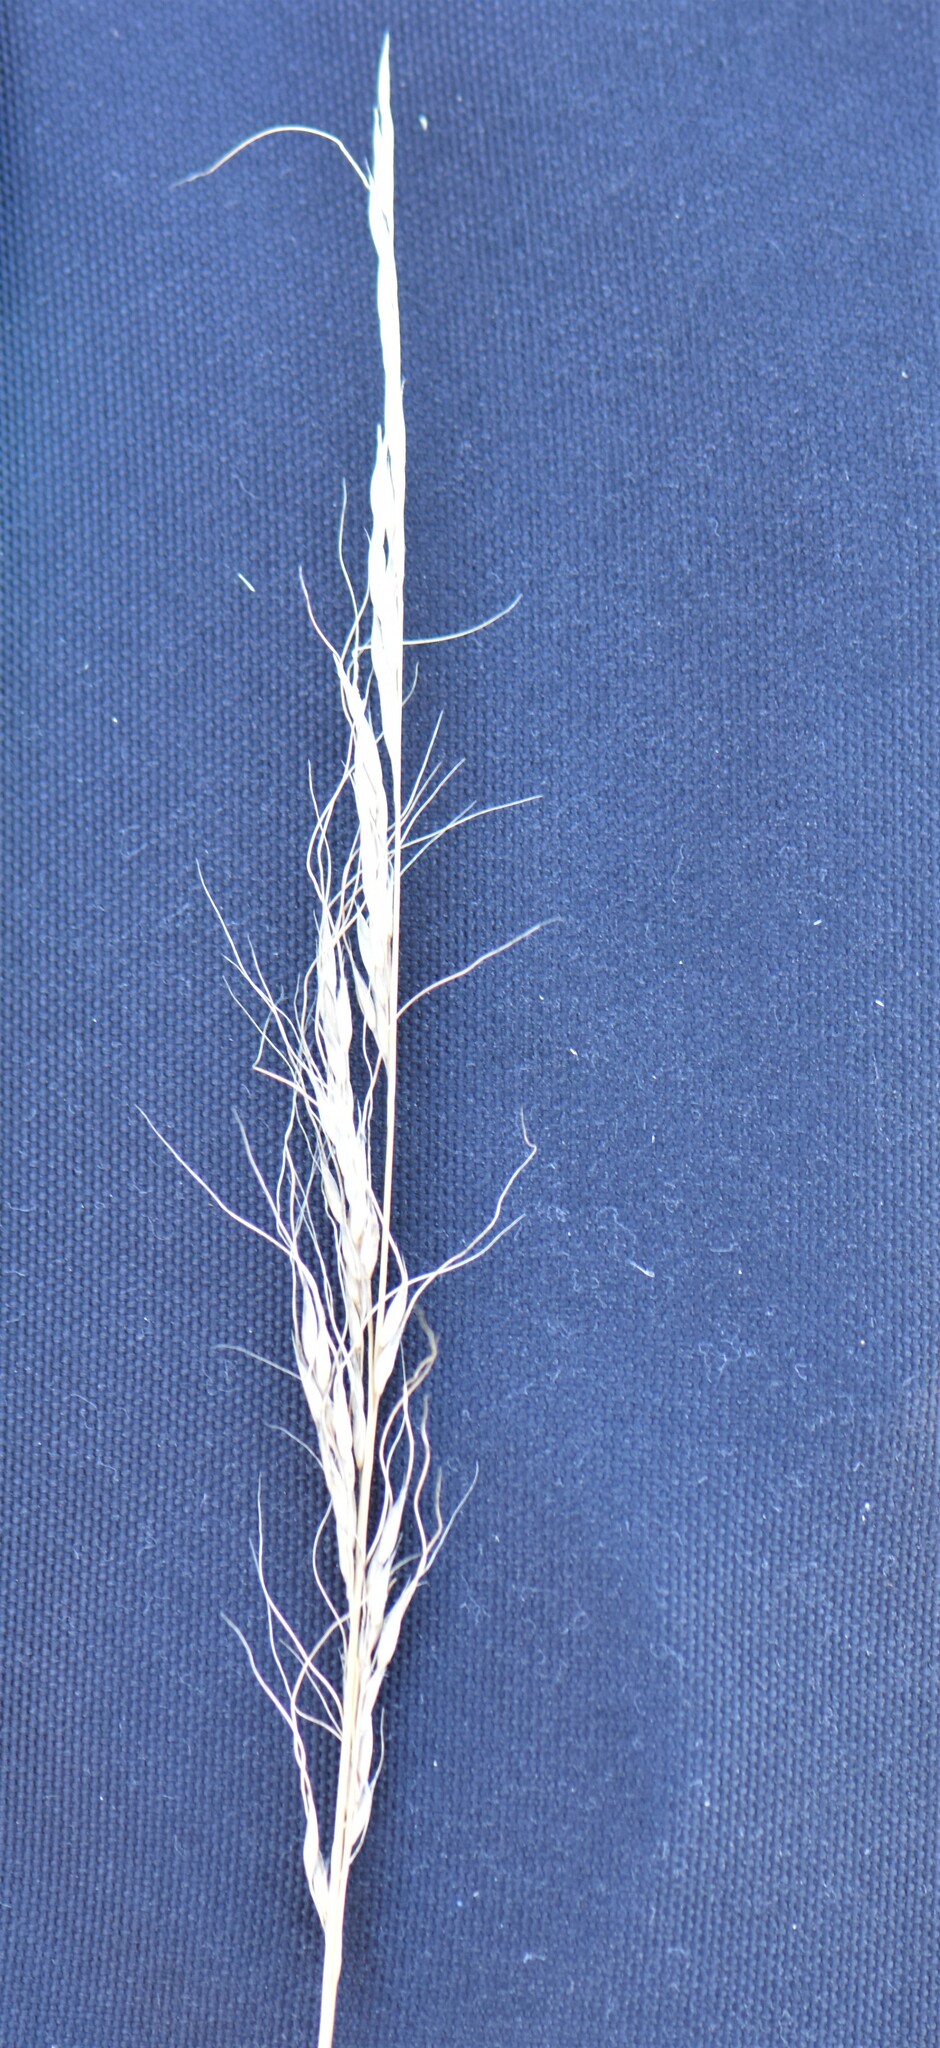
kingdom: Plantae
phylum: Tracheophyta
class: Liliopsida
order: Poales
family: Poaceae
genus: Nassella
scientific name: Nassella viridula
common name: Green needlegrass
